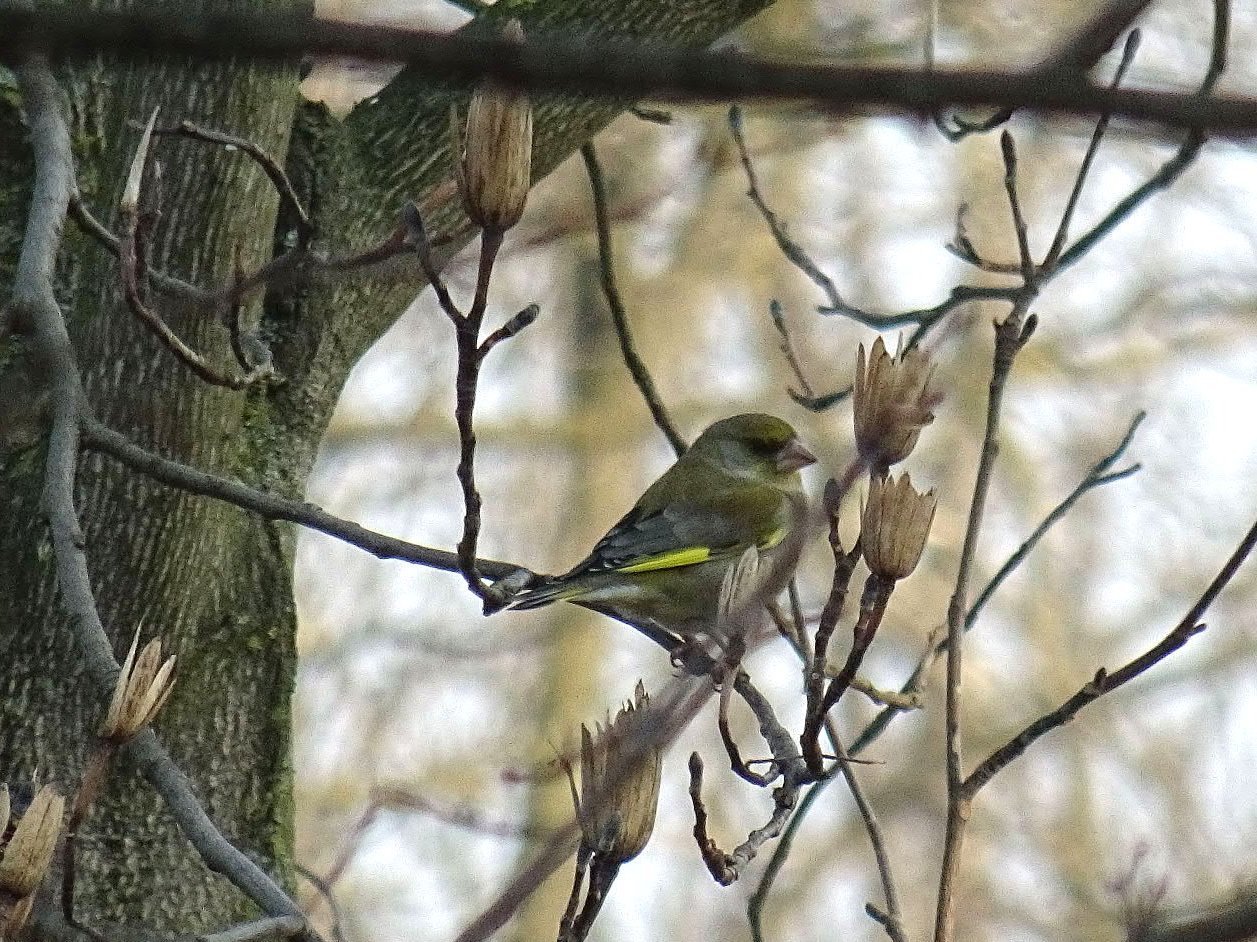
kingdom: Plantae
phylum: Tracheophyta
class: Liliopsida
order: Poales
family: Poaceae
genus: Chloris
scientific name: Chloris chloris
